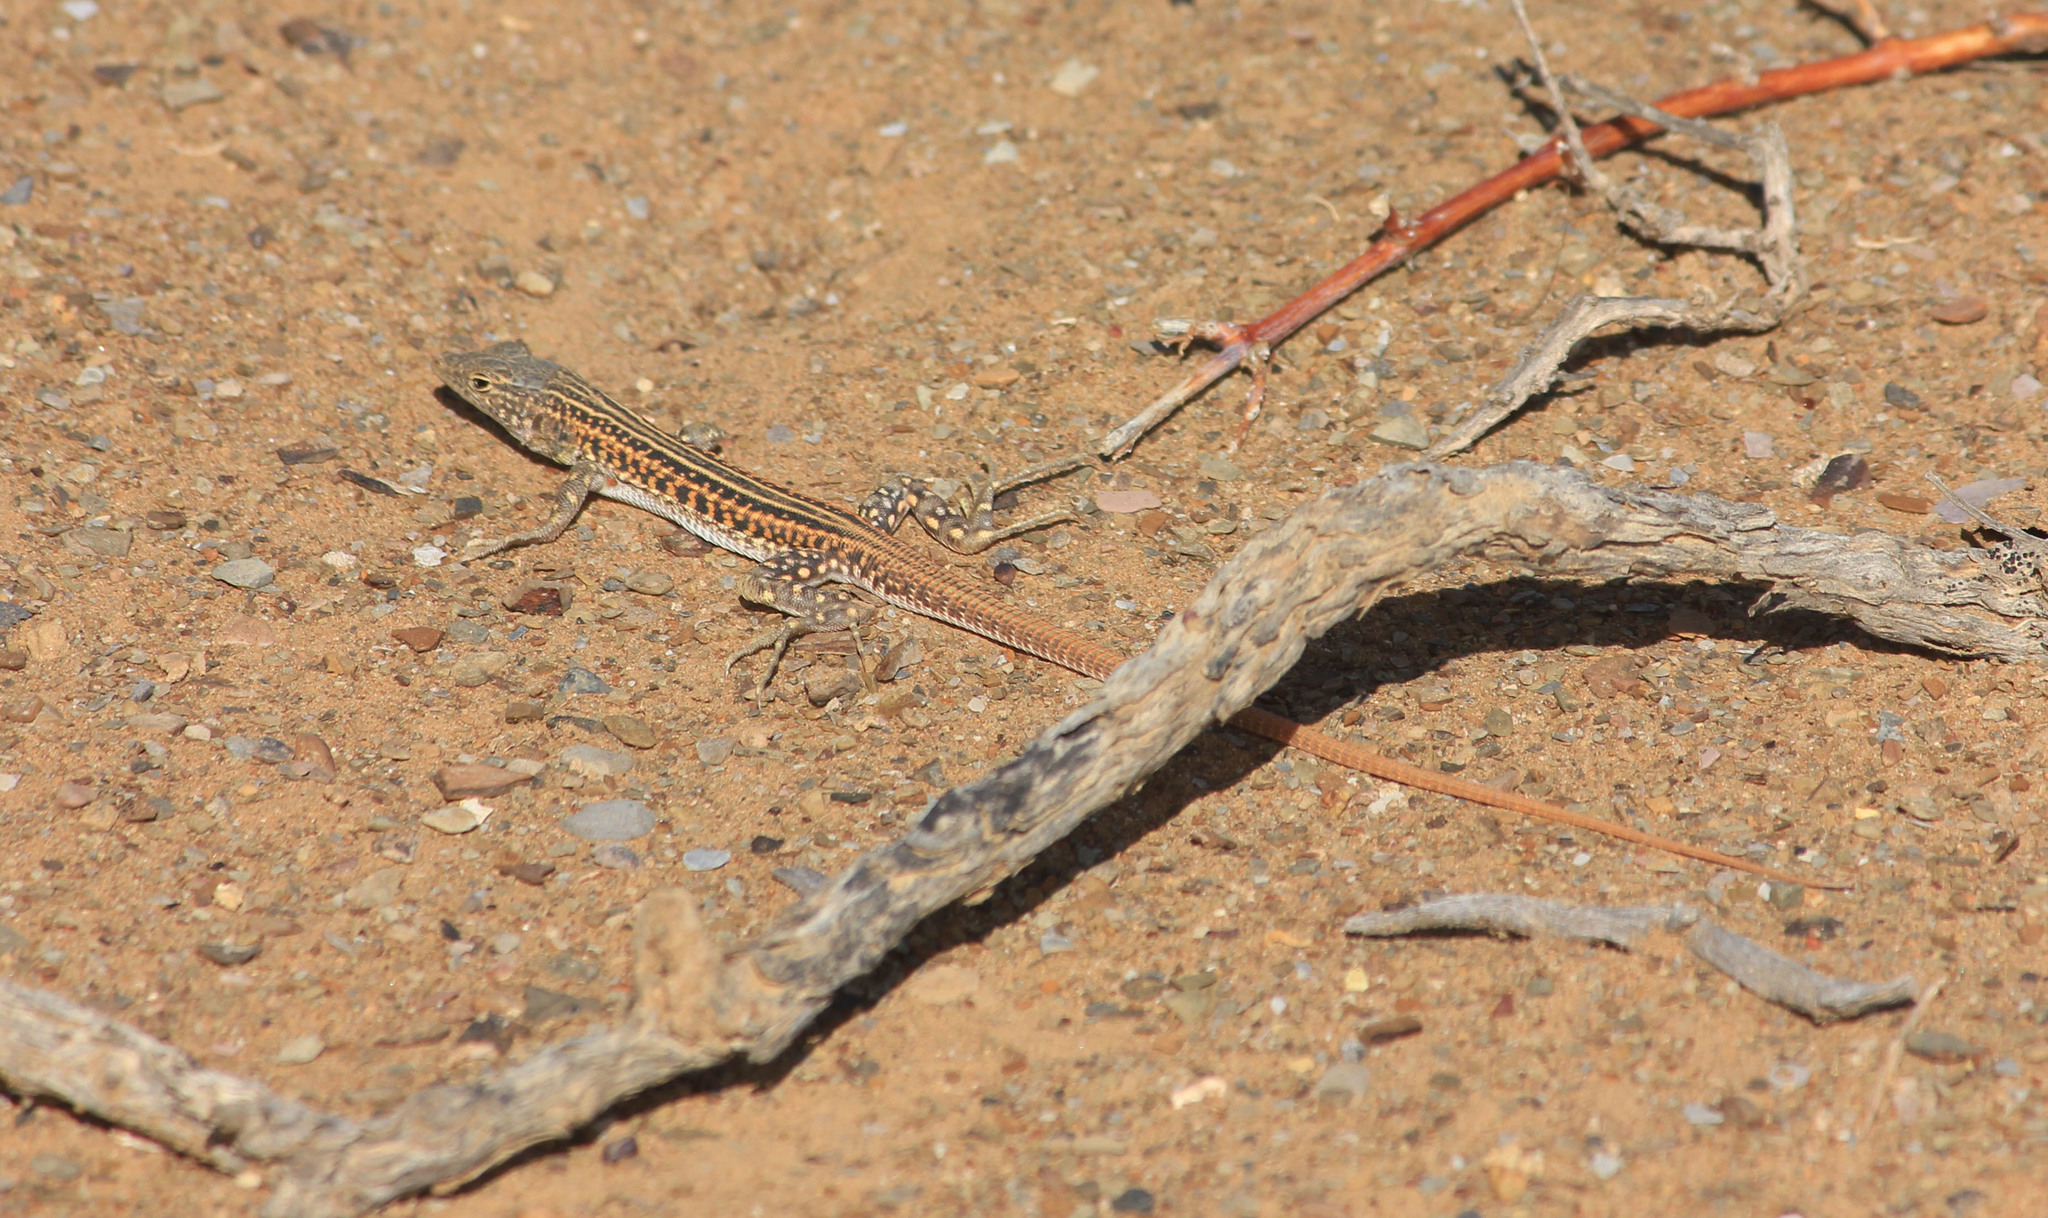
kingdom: Animalia
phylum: Chordata
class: Squamata
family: Lacertidae
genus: Pedioplanis
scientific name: Pedioplanis laticeps
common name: Karoo sand lizard
